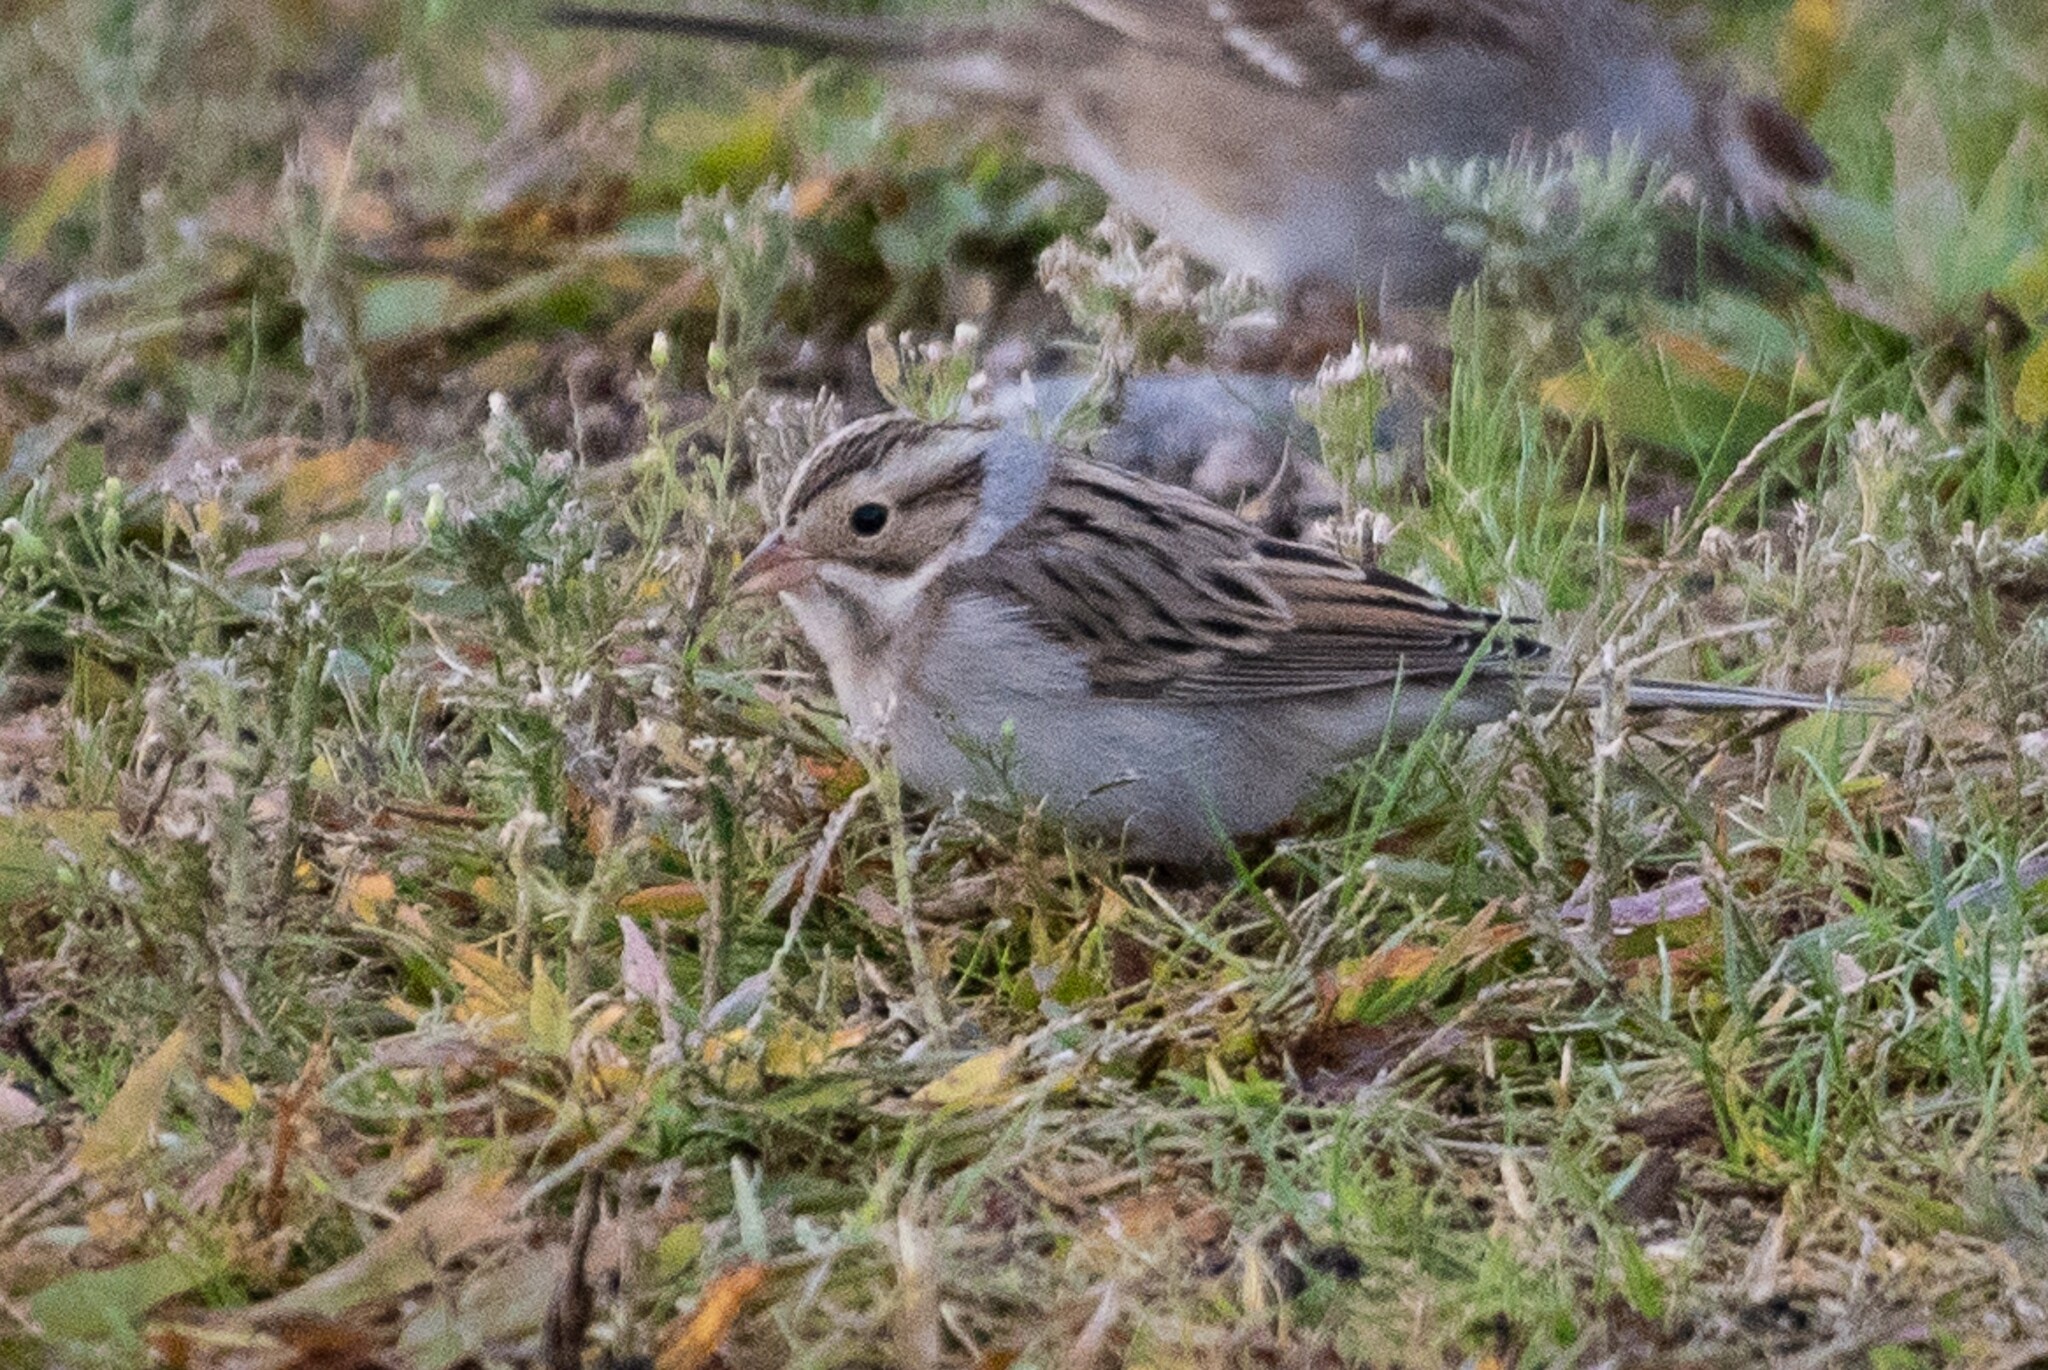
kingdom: Animalia
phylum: Chordata
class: Aves
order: Passeriformes
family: Passerellidae
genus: Spizella
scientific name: Spizella pallida
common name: Clay-colored sparrow
